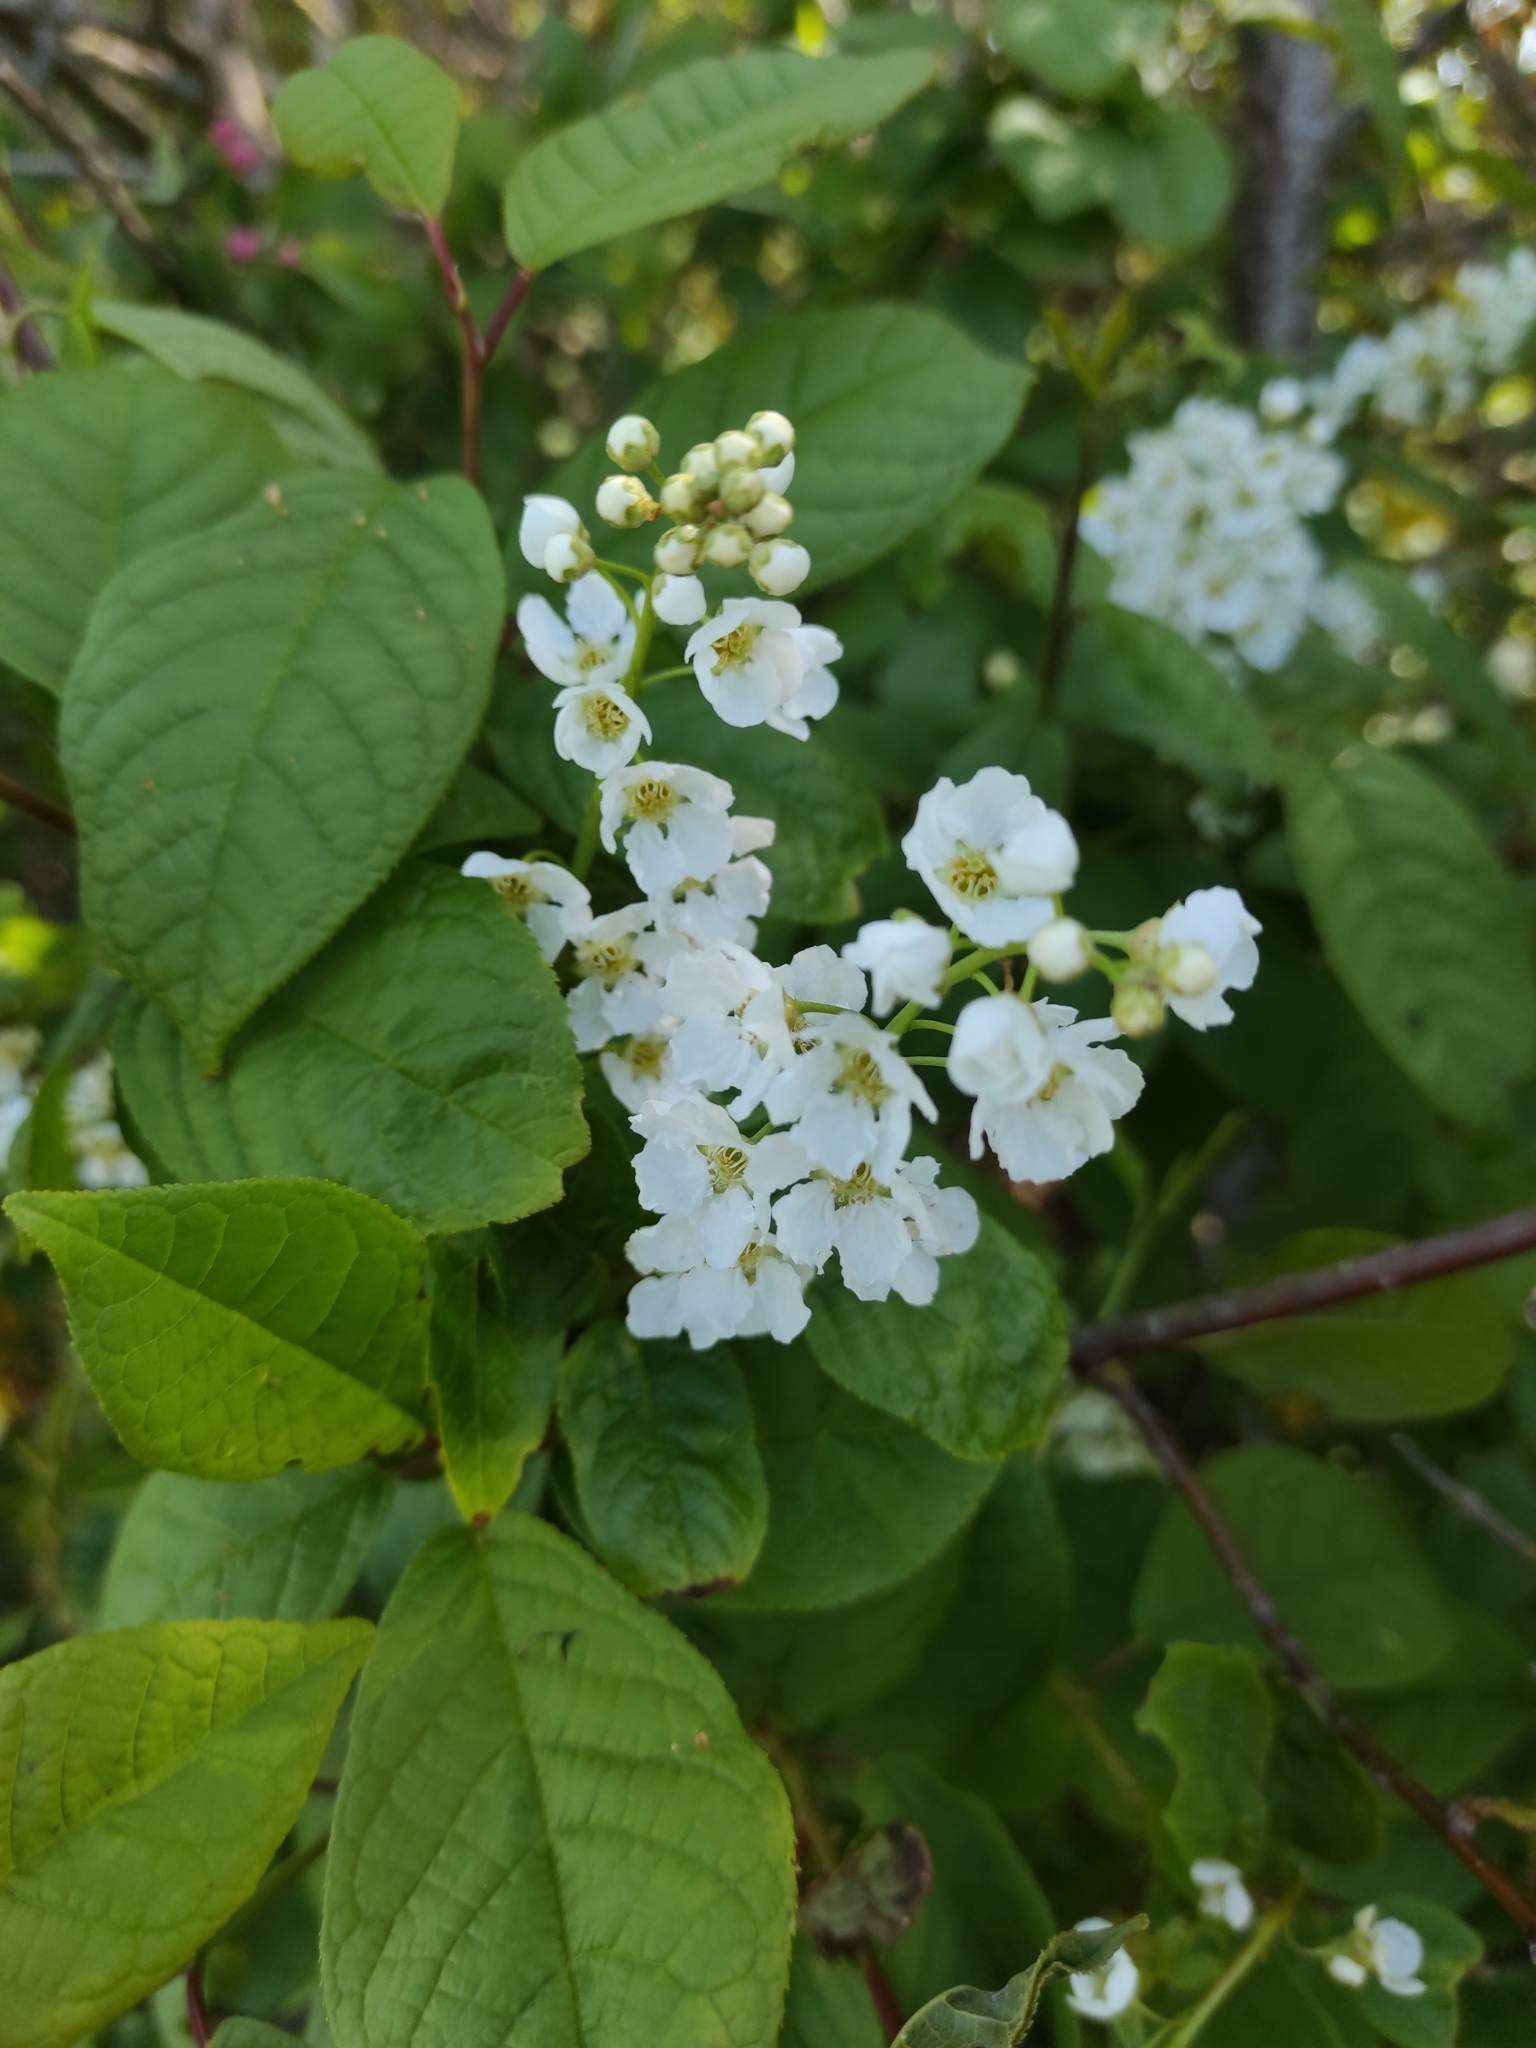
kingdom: Plantae
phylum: Tracheophyta
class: Magnoliopsida
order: Rosales
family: Rosaceae
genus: Prunus
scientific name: Prunus padus
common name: Bird cherry
